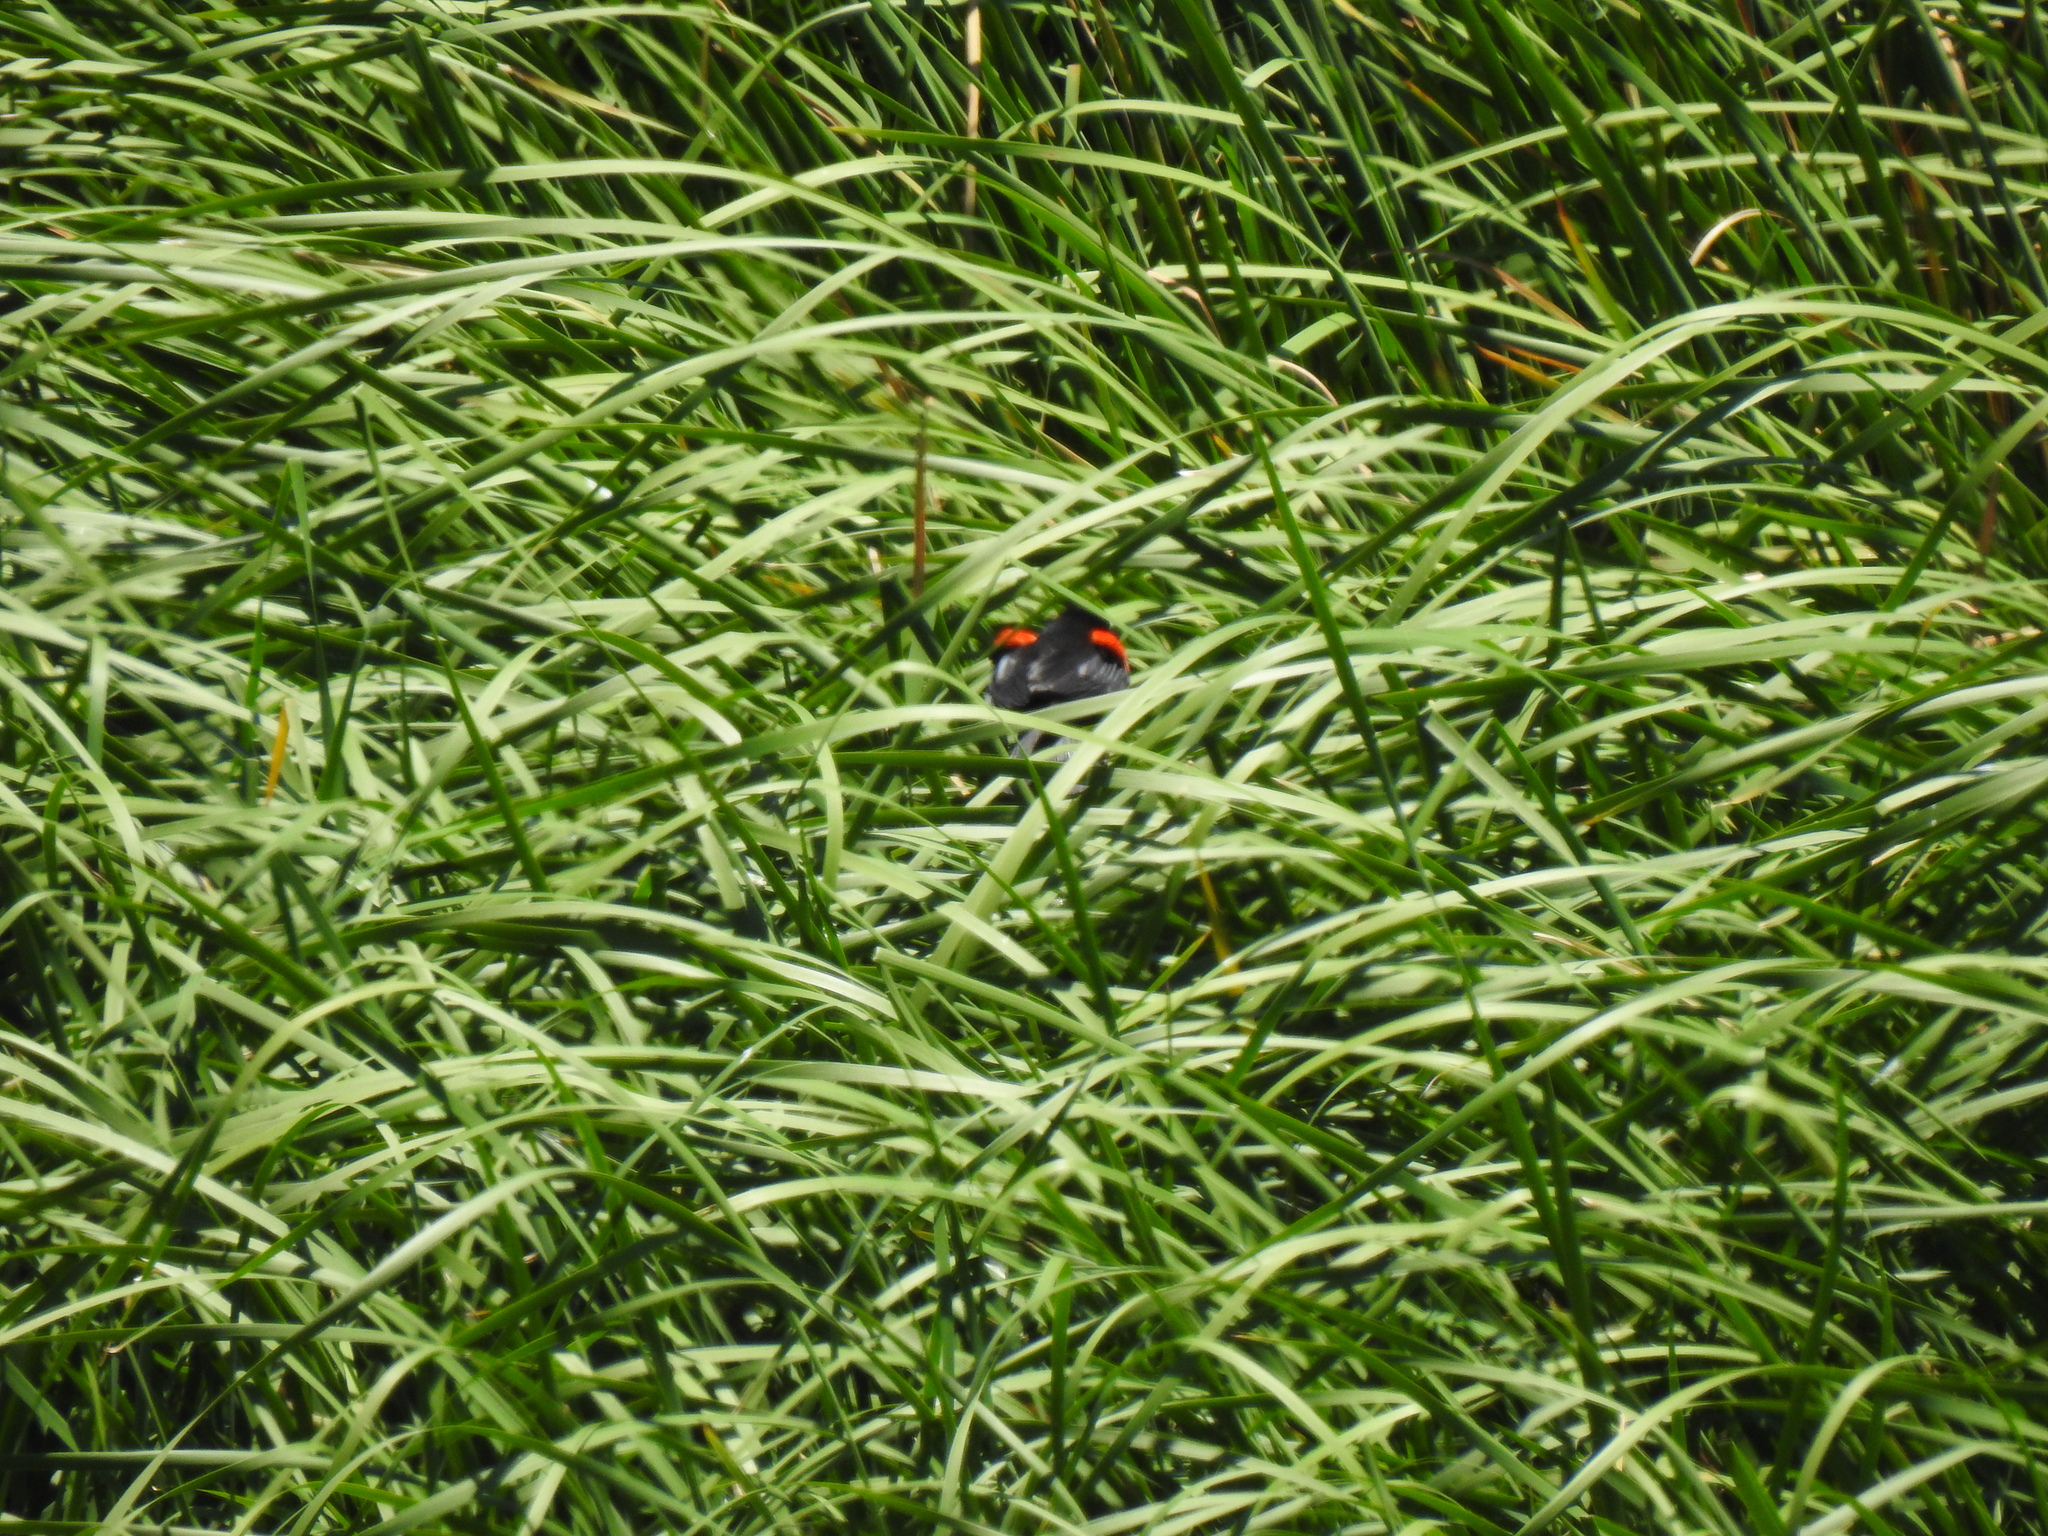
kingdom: Animalia
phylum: Chordata
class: Aves
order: Passeriformes
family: Icteridae
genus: Agelaius
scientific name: Agelaius phoeniceus
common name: Red-winged blackbird
